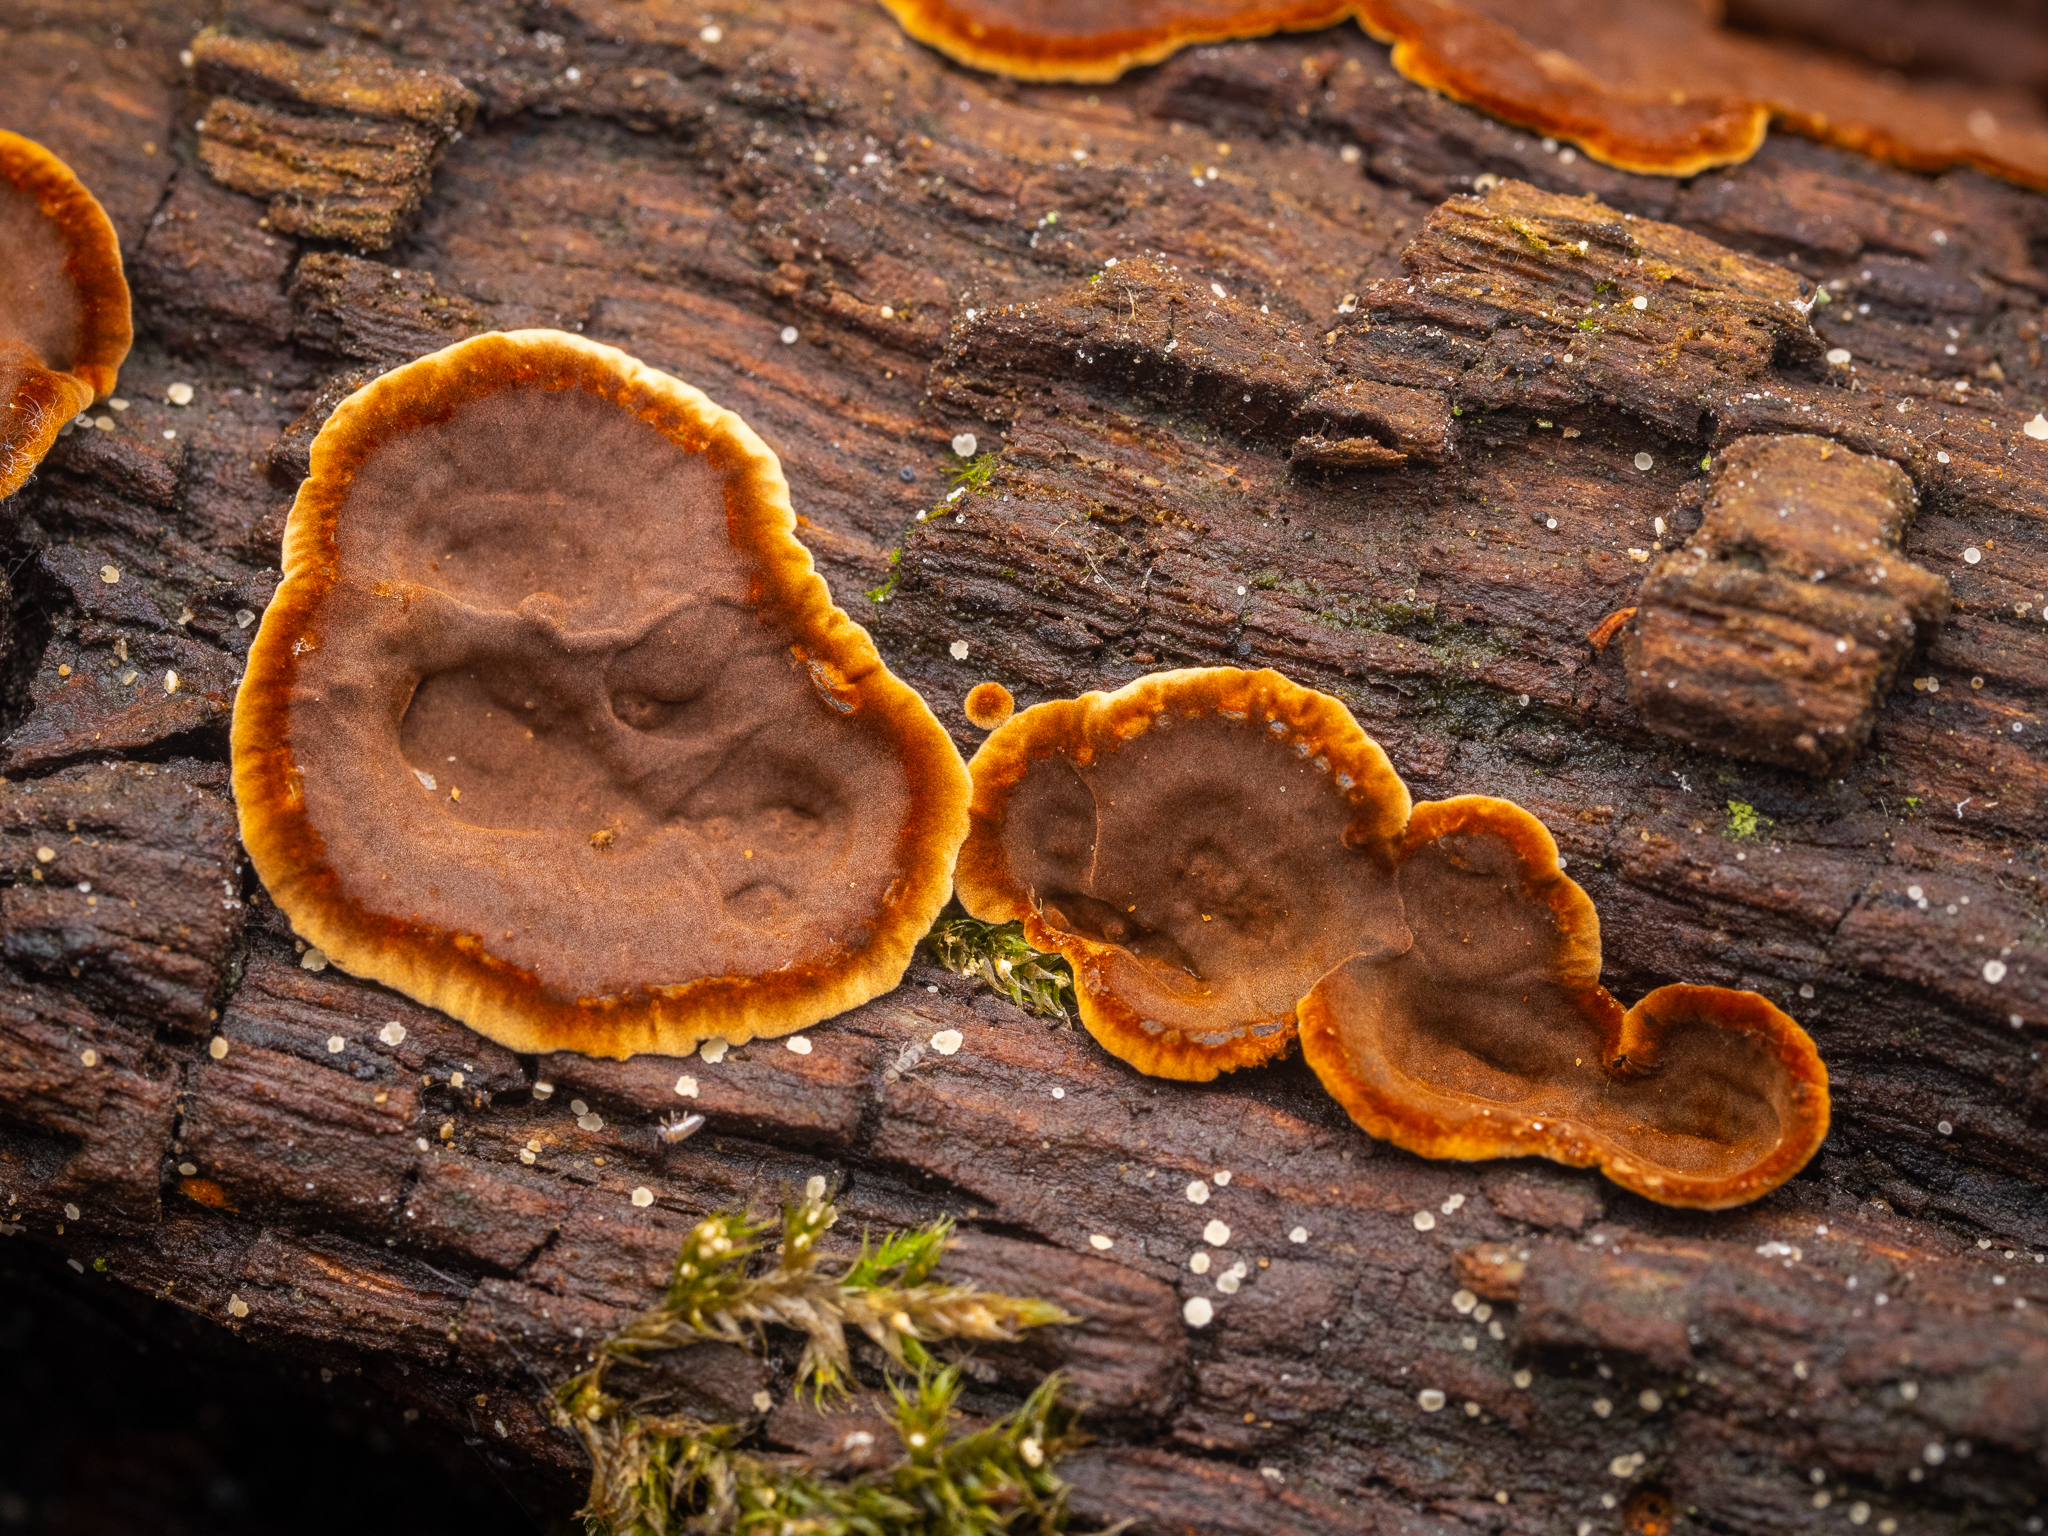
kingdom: Fungi
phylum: Basidiomycota
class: Agaricomycetes
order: Hymenochaetales
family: Hymenochaetaceae
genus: Hymenochaete
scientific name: Hymenochaete rubiginosa
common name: Oak curtain crust
